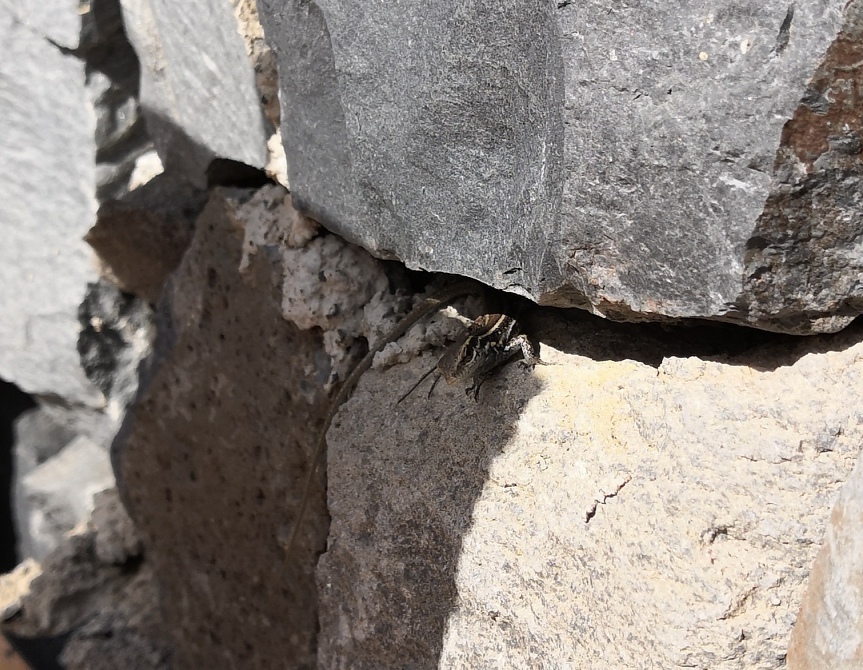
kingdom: Animalia
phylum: Chordata
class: Squamata
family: Lacertidae
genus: Gallotia
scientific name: Gallotia caesaris
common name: Boettger's lizard
